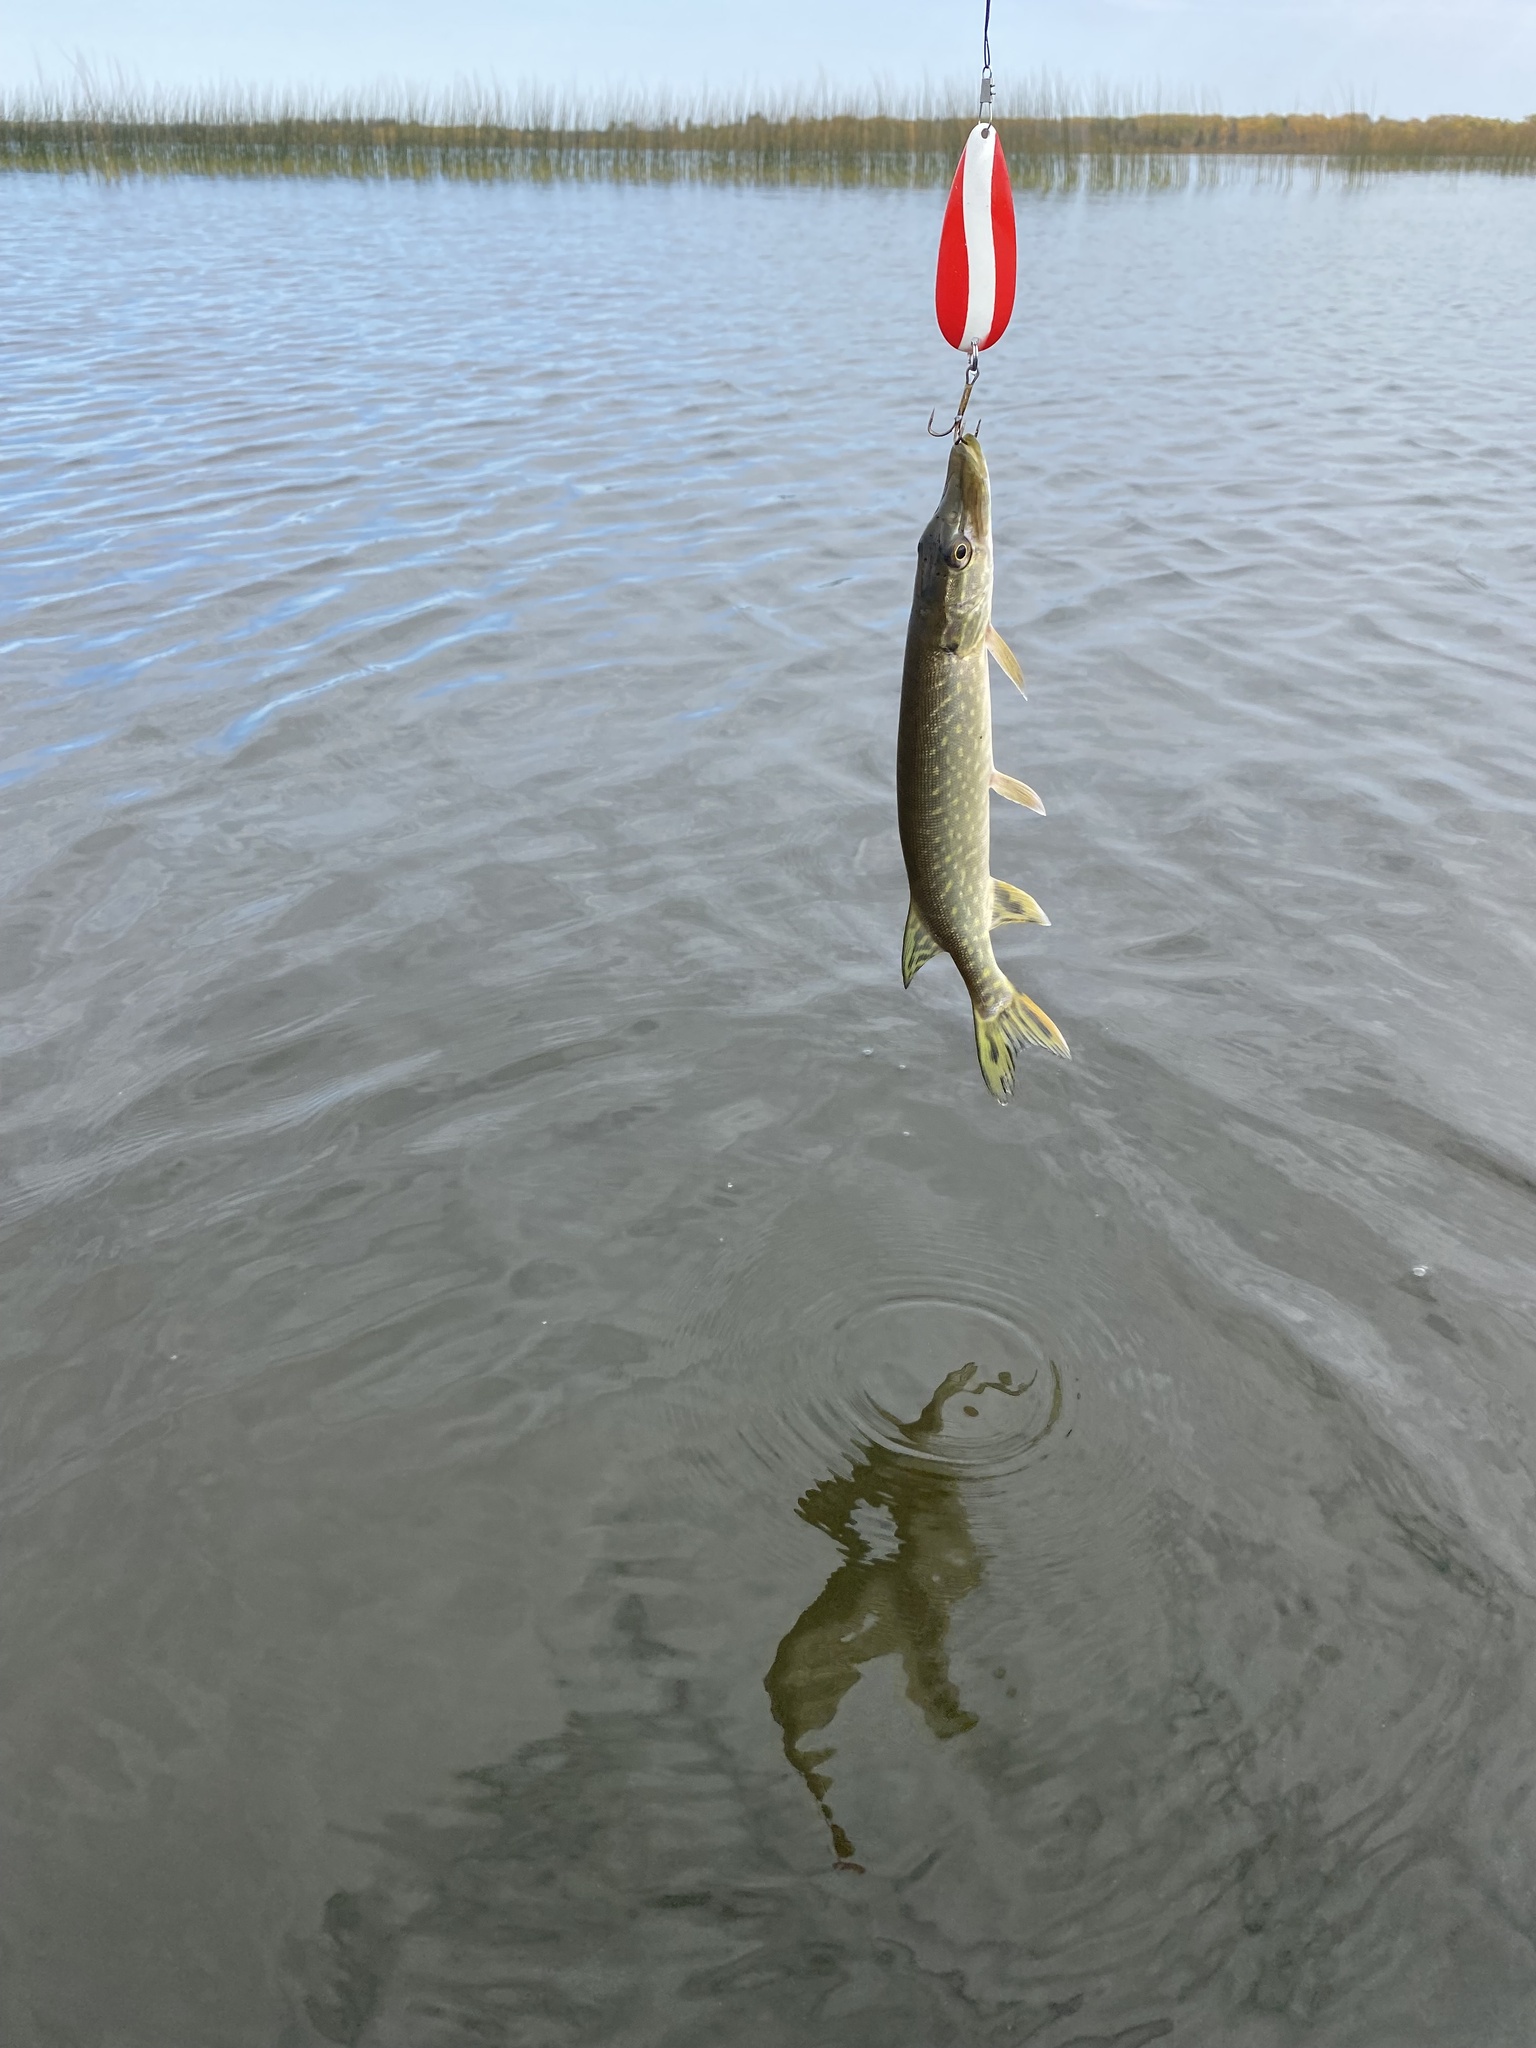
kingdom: Animalia
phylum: Chordata
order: Esociformes
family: Esocidae
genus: Esox
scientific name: Esox lucius
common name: Northern pike
